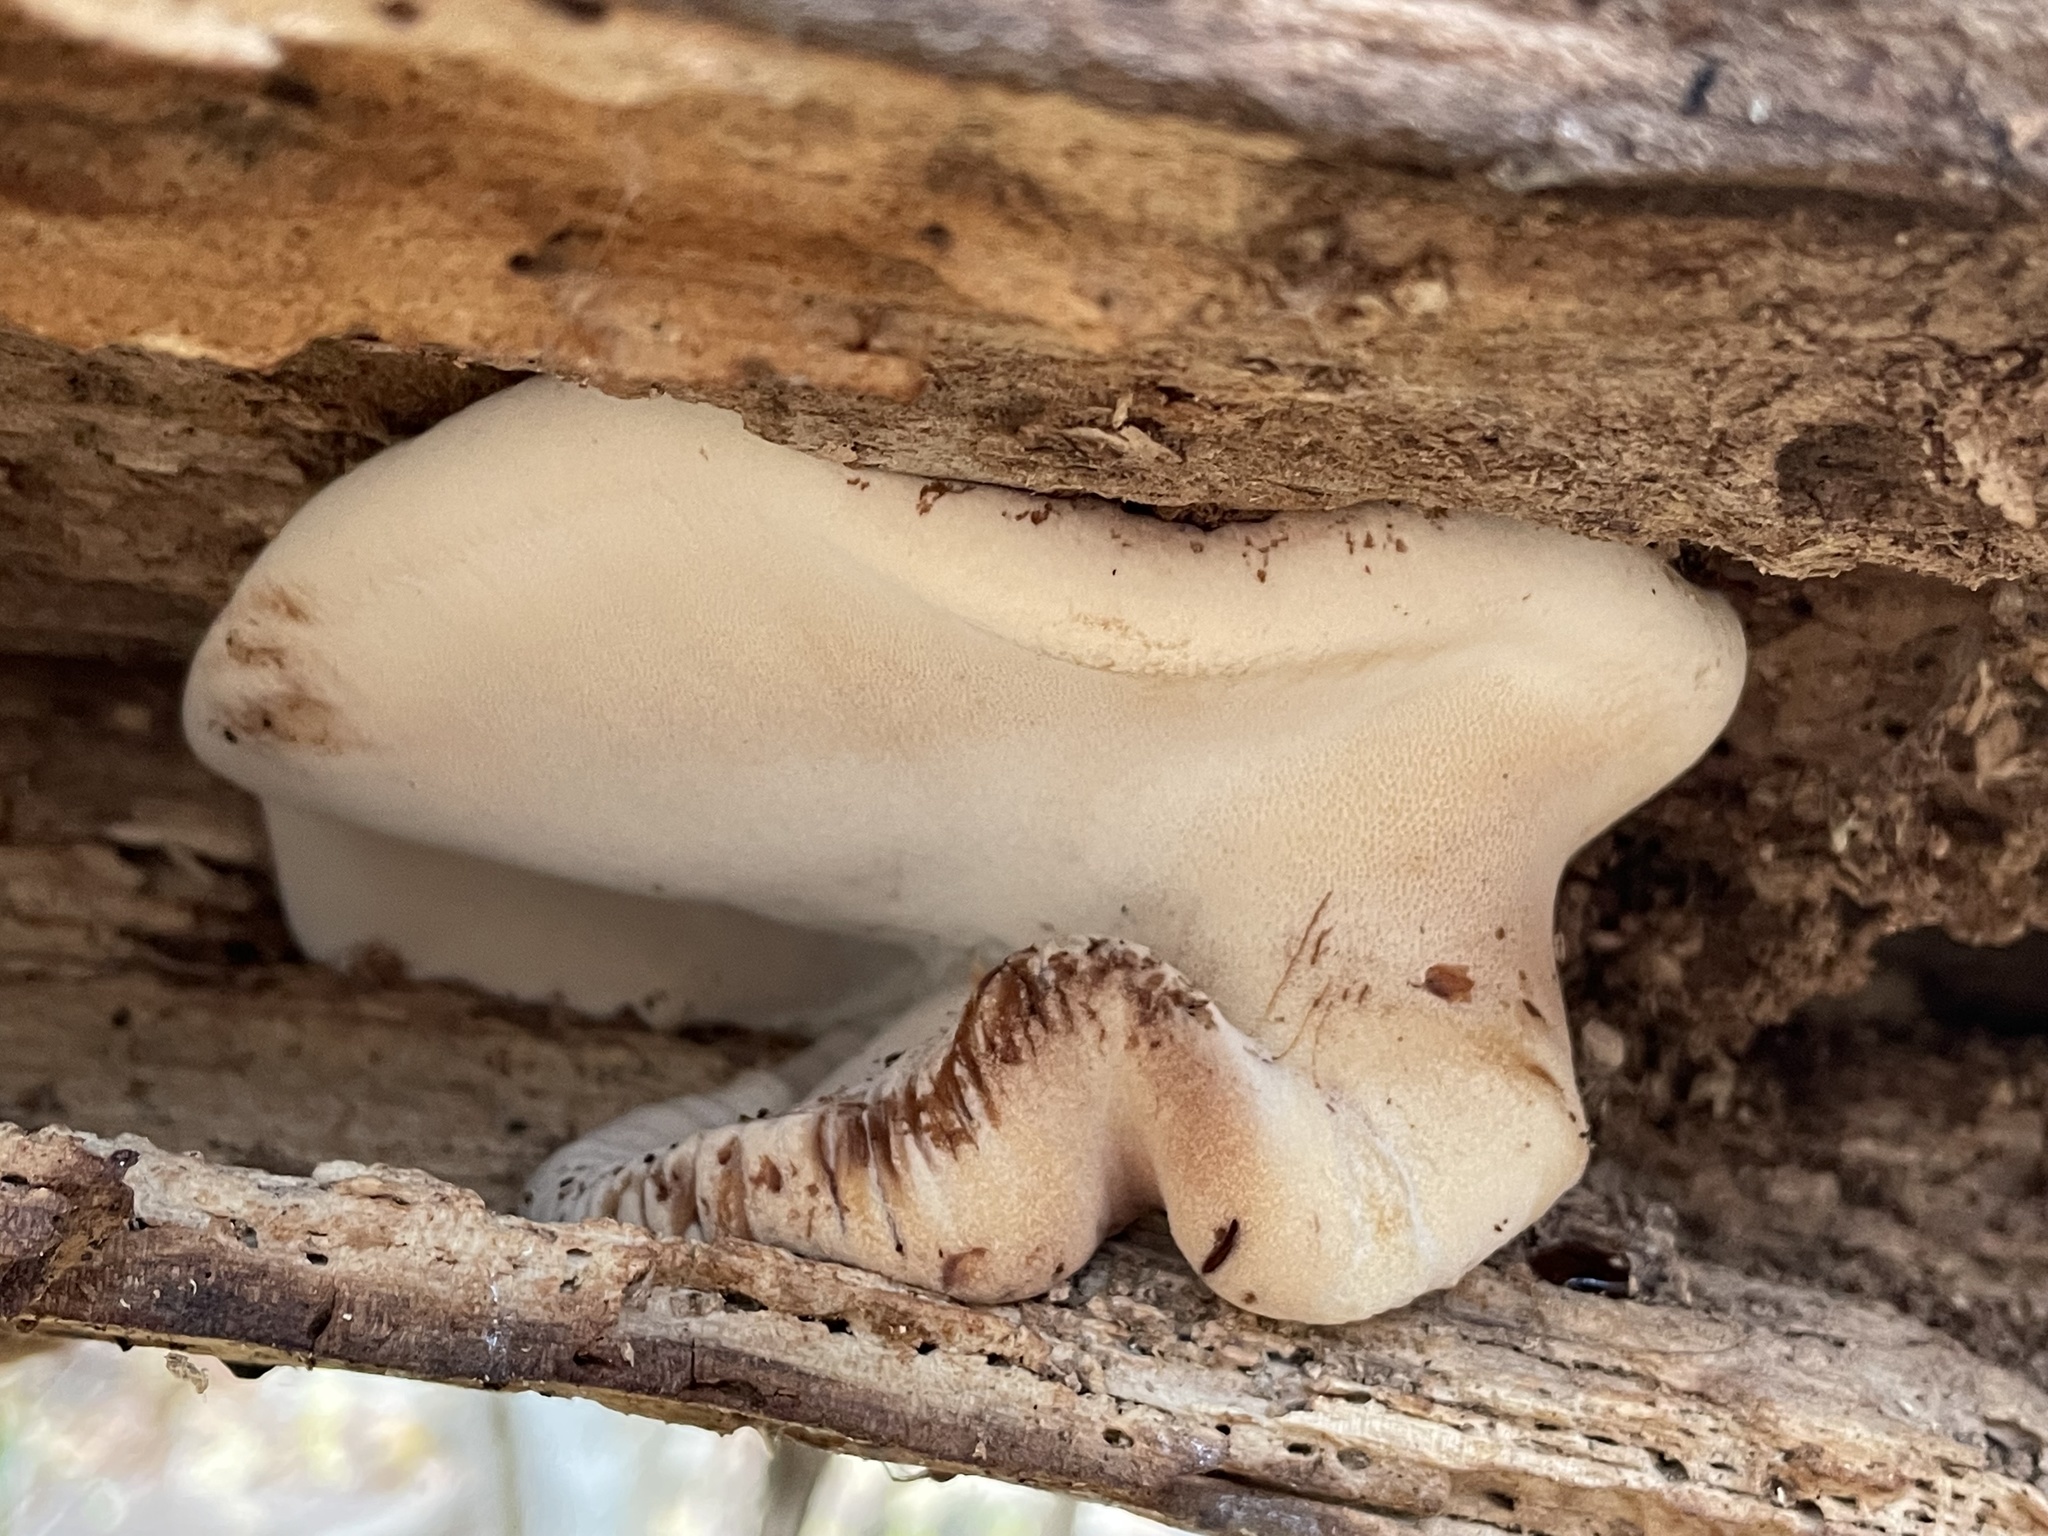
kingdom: Fungi
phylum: Basidiomycota
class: Agaricomycetes
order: Polyporales
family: Ischnodermataceae
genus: Ischnoderma
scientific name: Ischnoderma resinosum
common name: Resinous polypore
